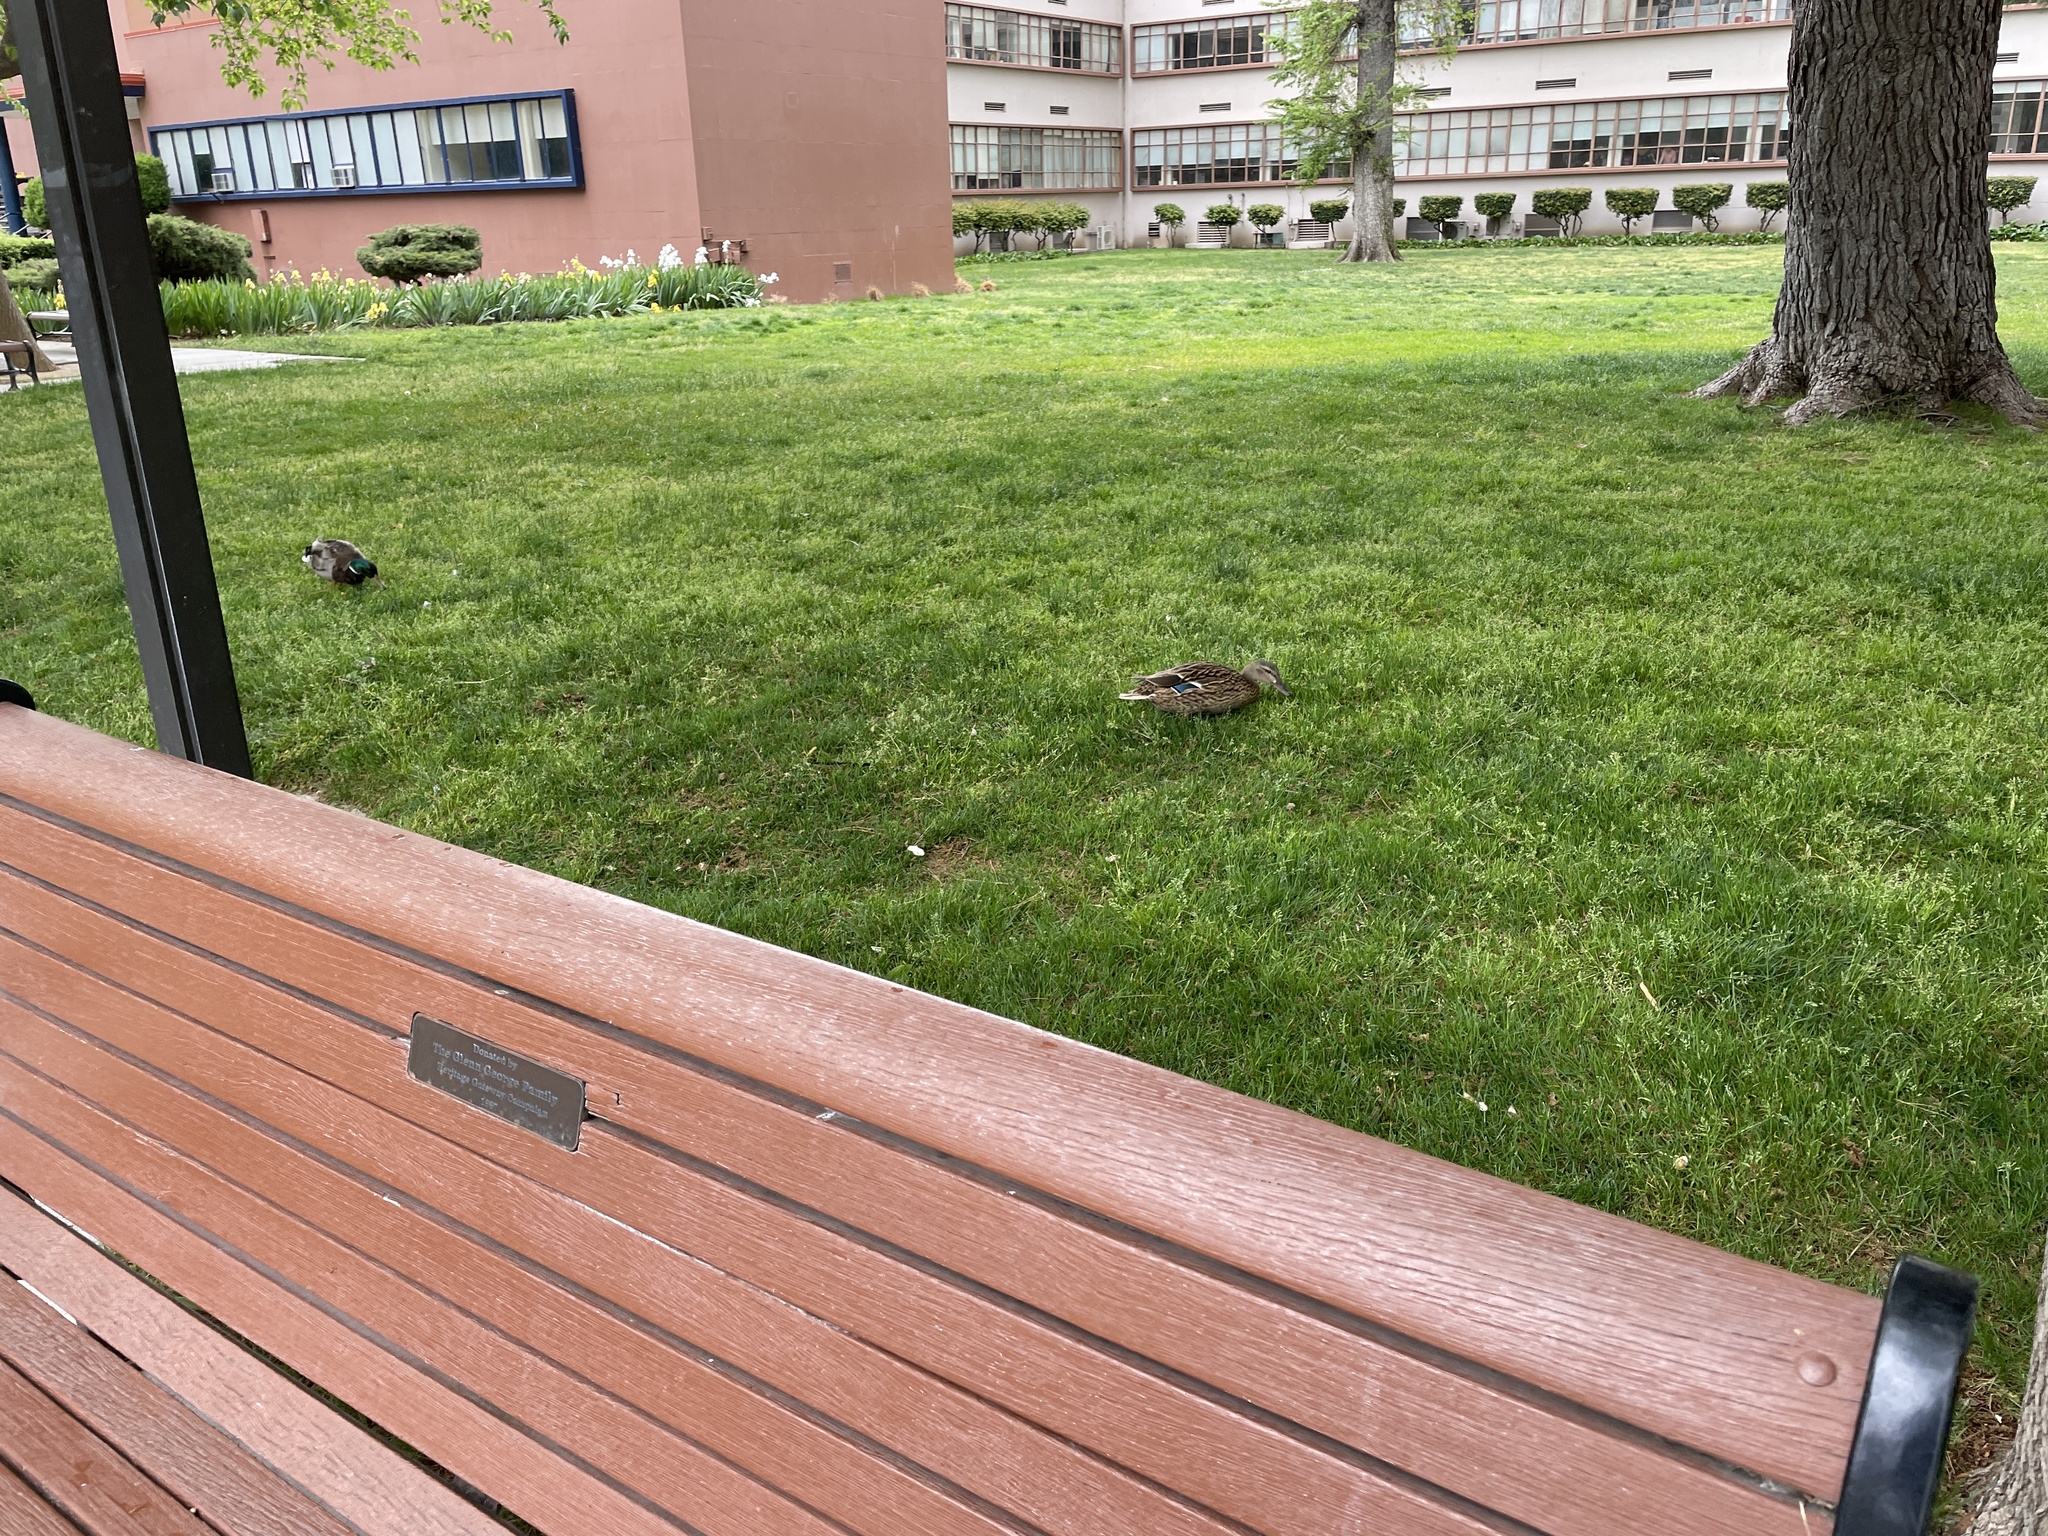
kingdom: Animalia
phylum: Chordata
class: Aves
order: Anseriformes
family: Anatidae
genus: Anas
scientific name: Anas platyrhynchos
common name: Mallard
